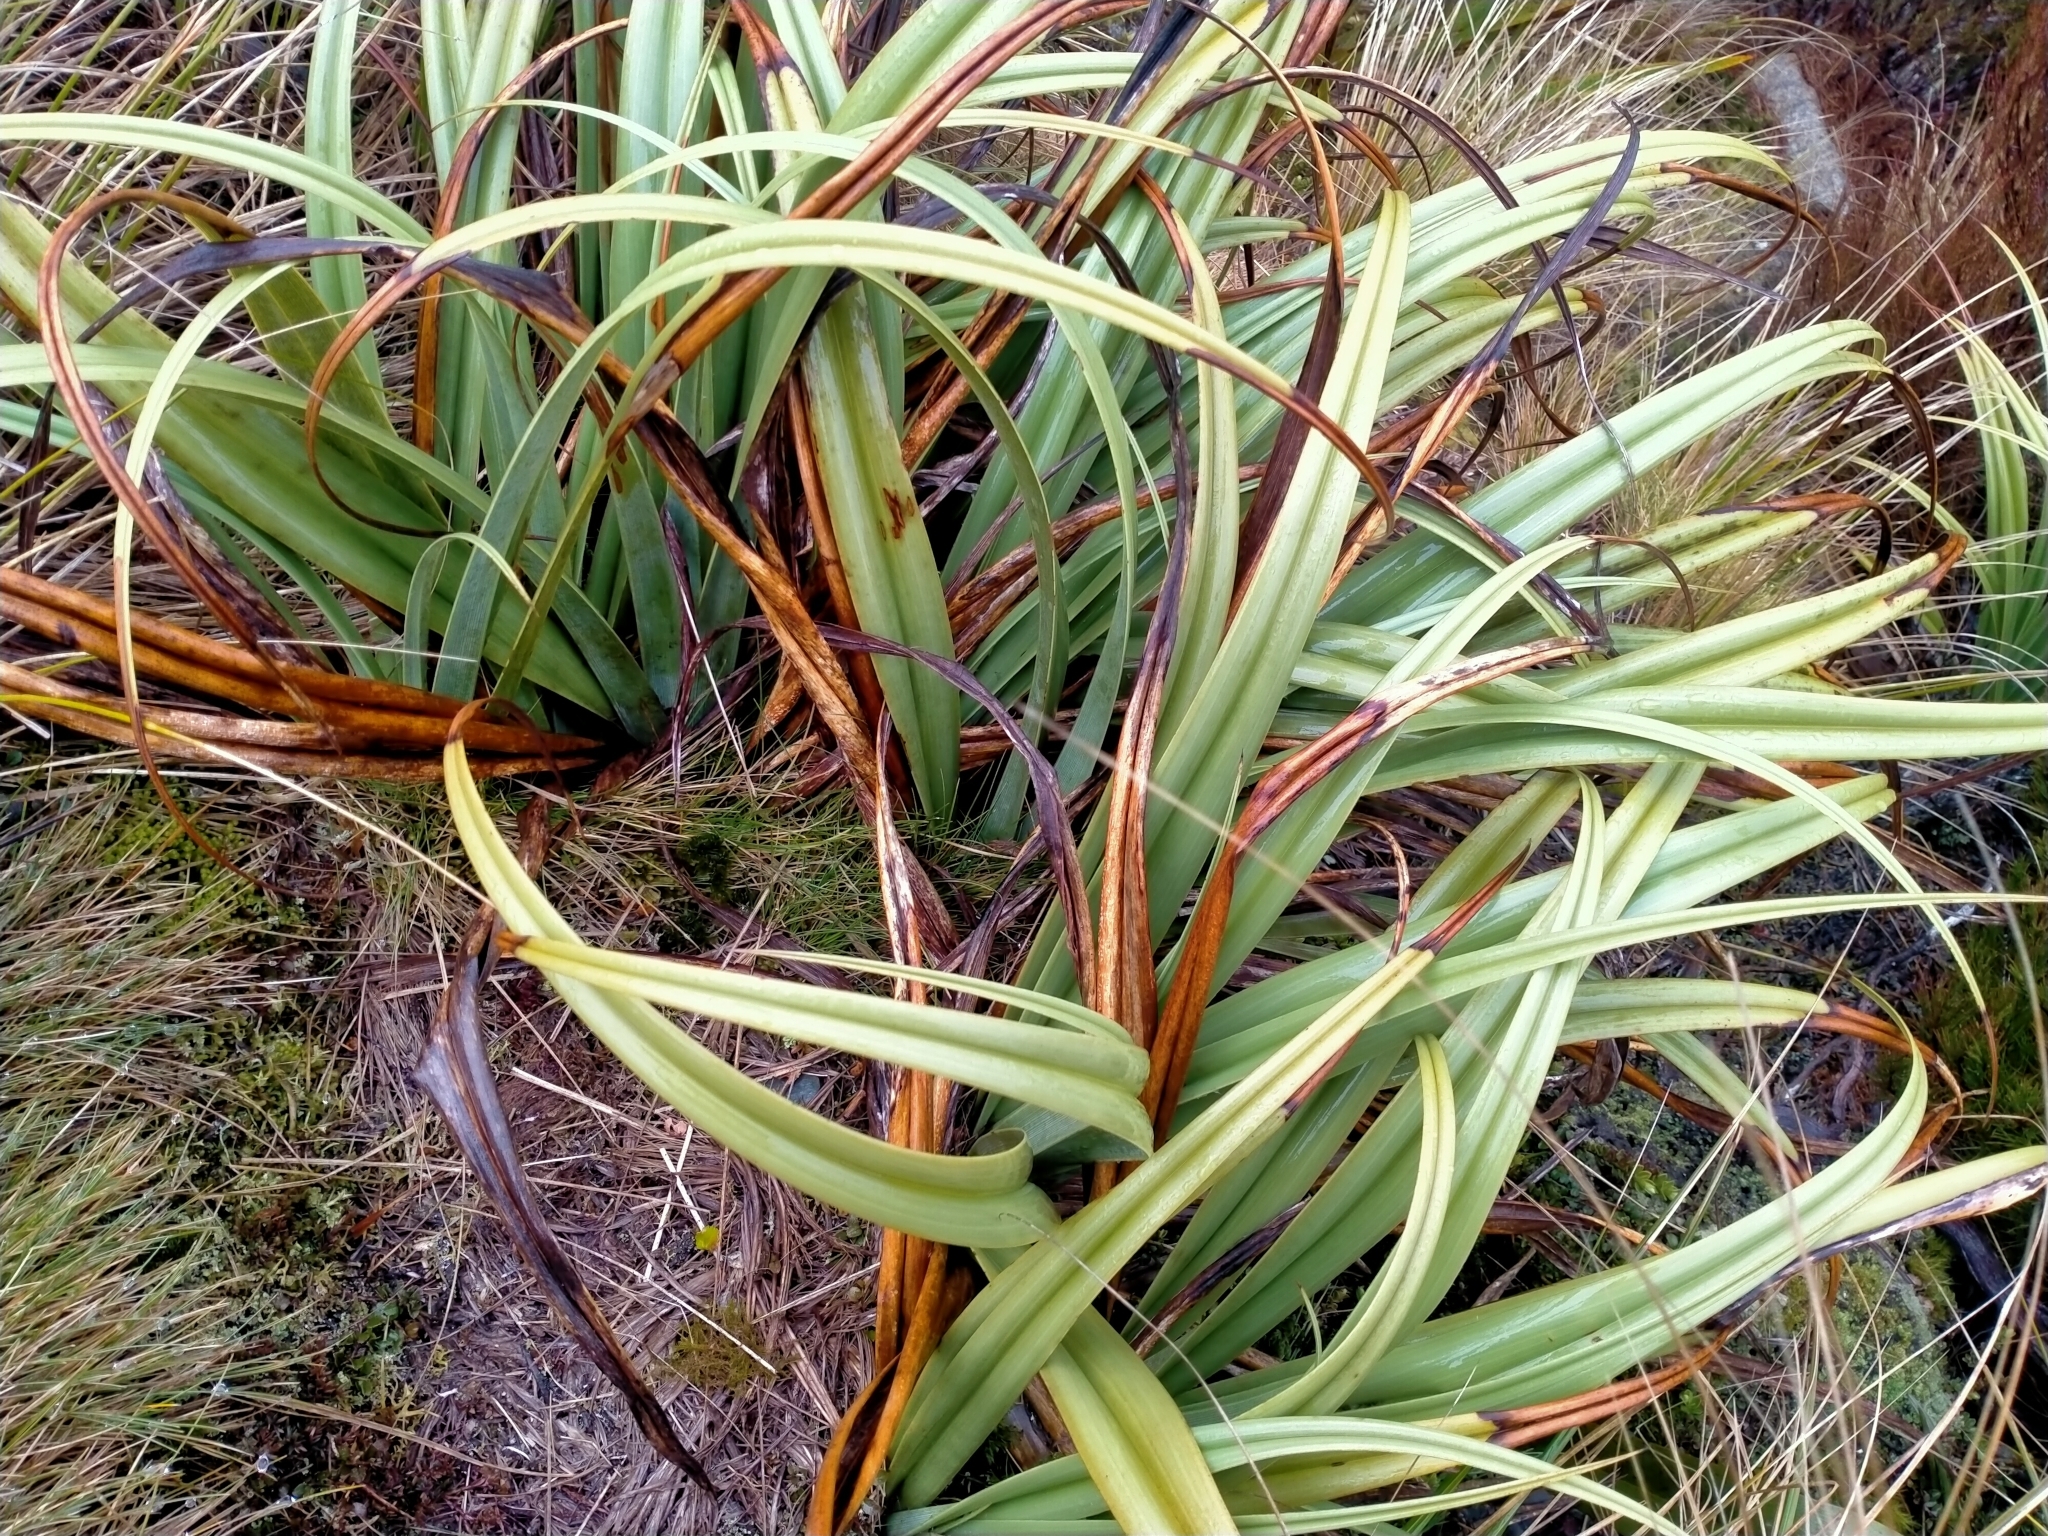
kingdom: Plantae
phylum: Tracheophyta
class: Liliopsida
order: Asparagales
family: Asteliaceae
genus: Astelia
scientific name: Astelia skottsbergii
